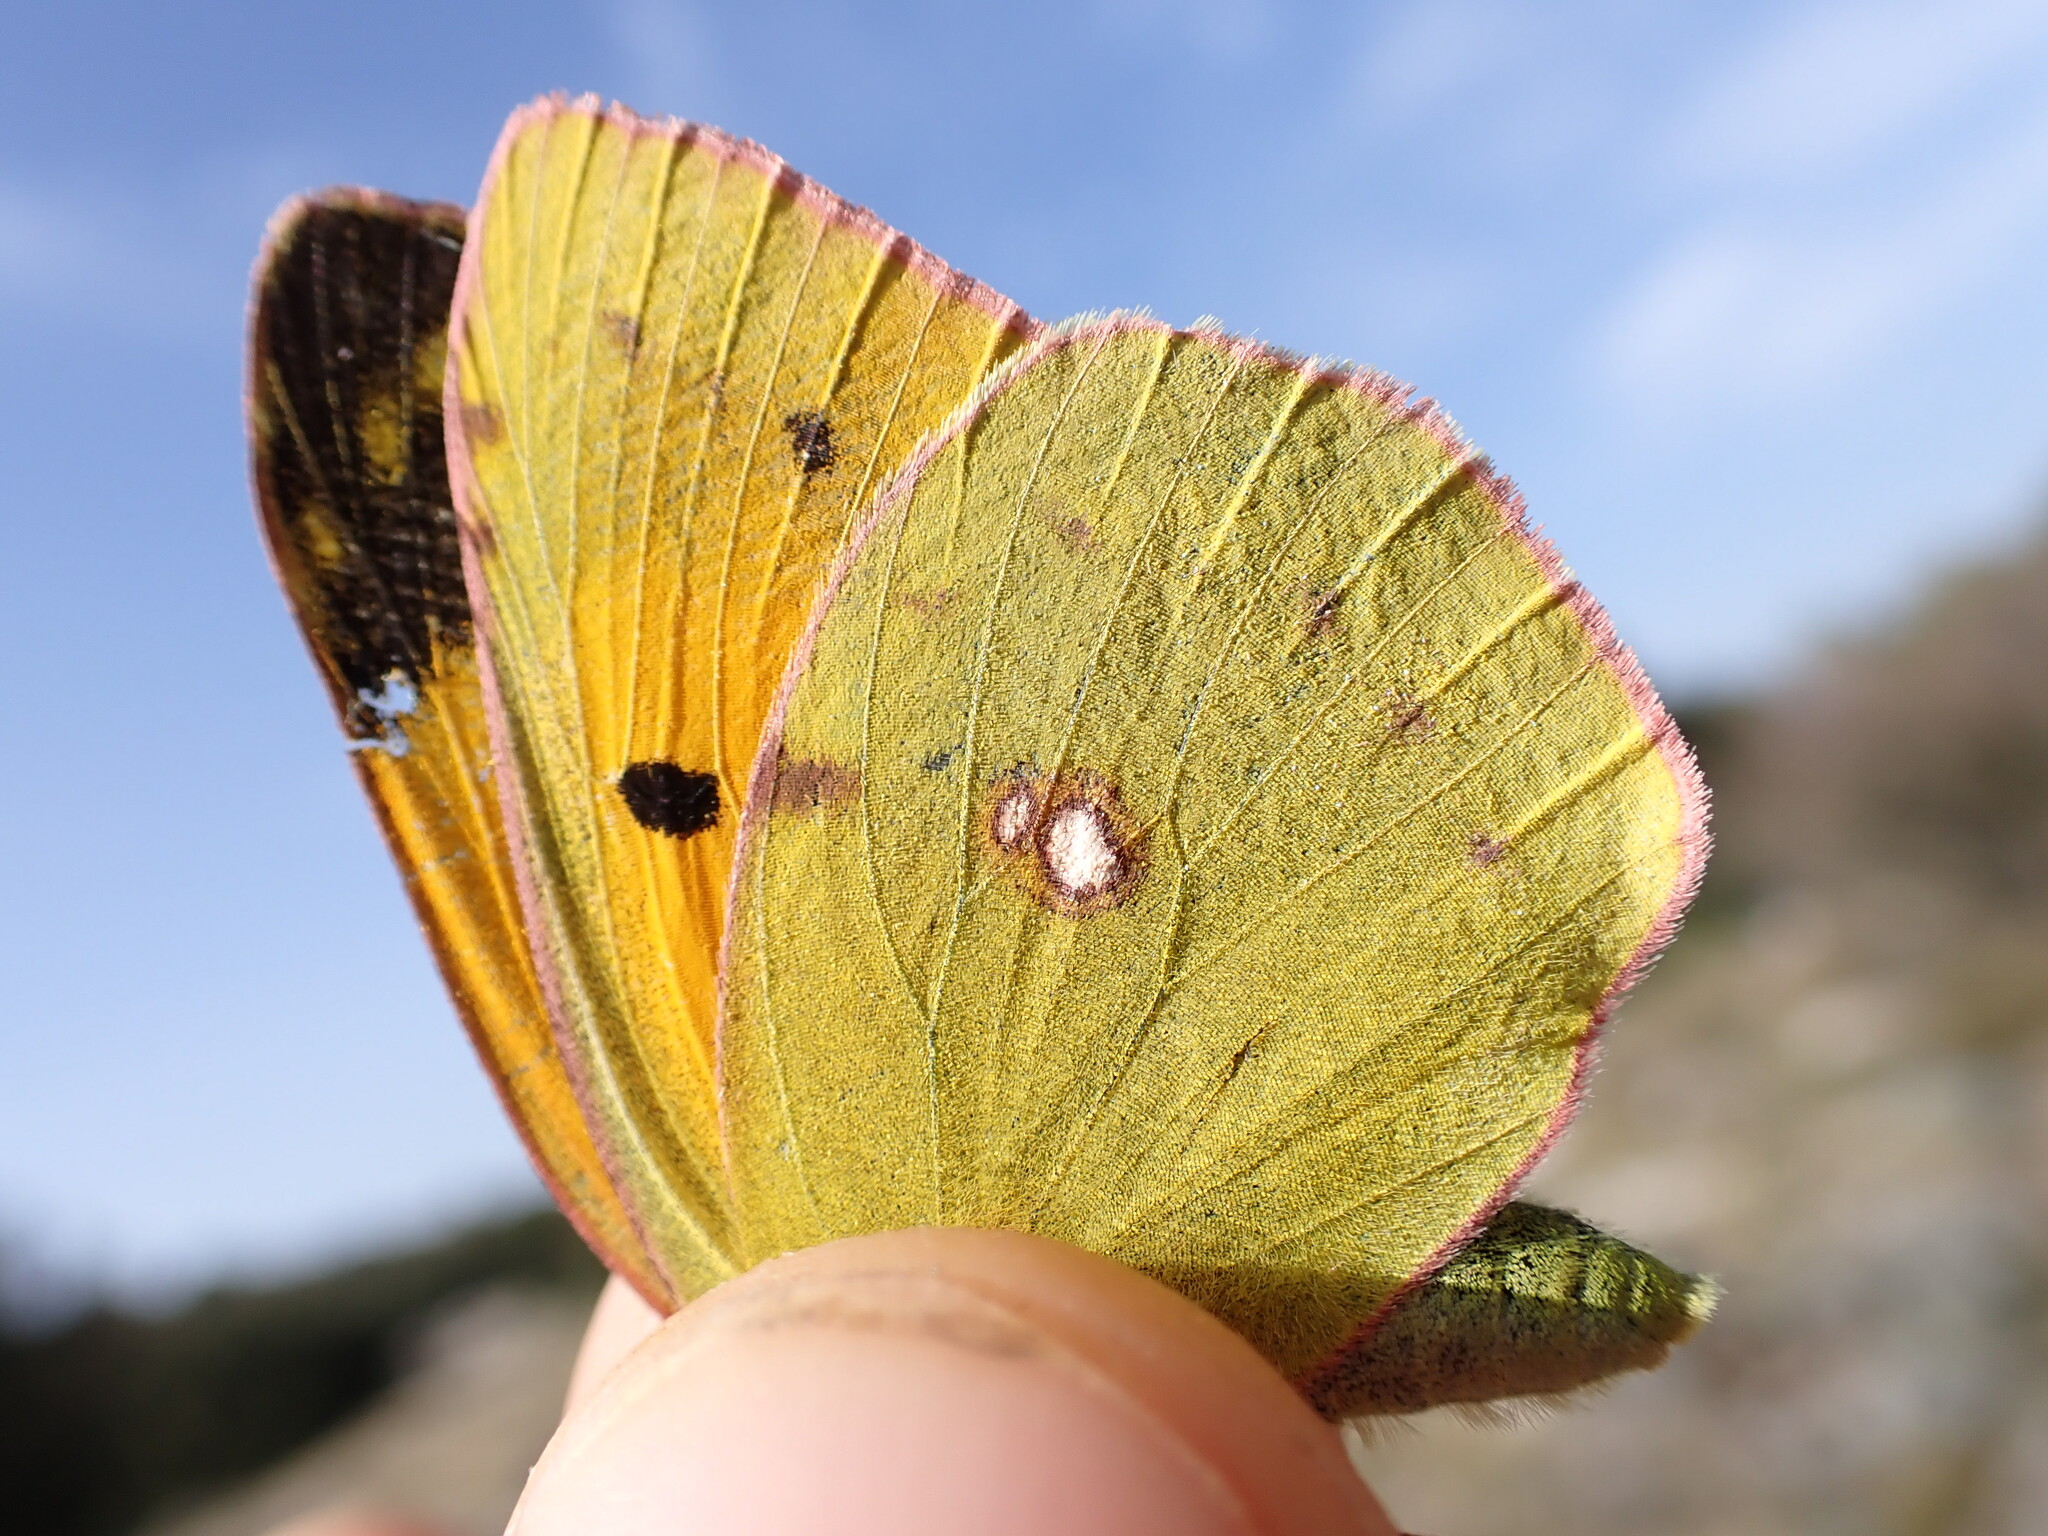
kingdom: Animalia
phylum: Arthropoda
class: Insecta
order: Lepidoptera
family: Pieridae
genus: Colias
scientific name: Colias croceus
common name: Clouded yellow
